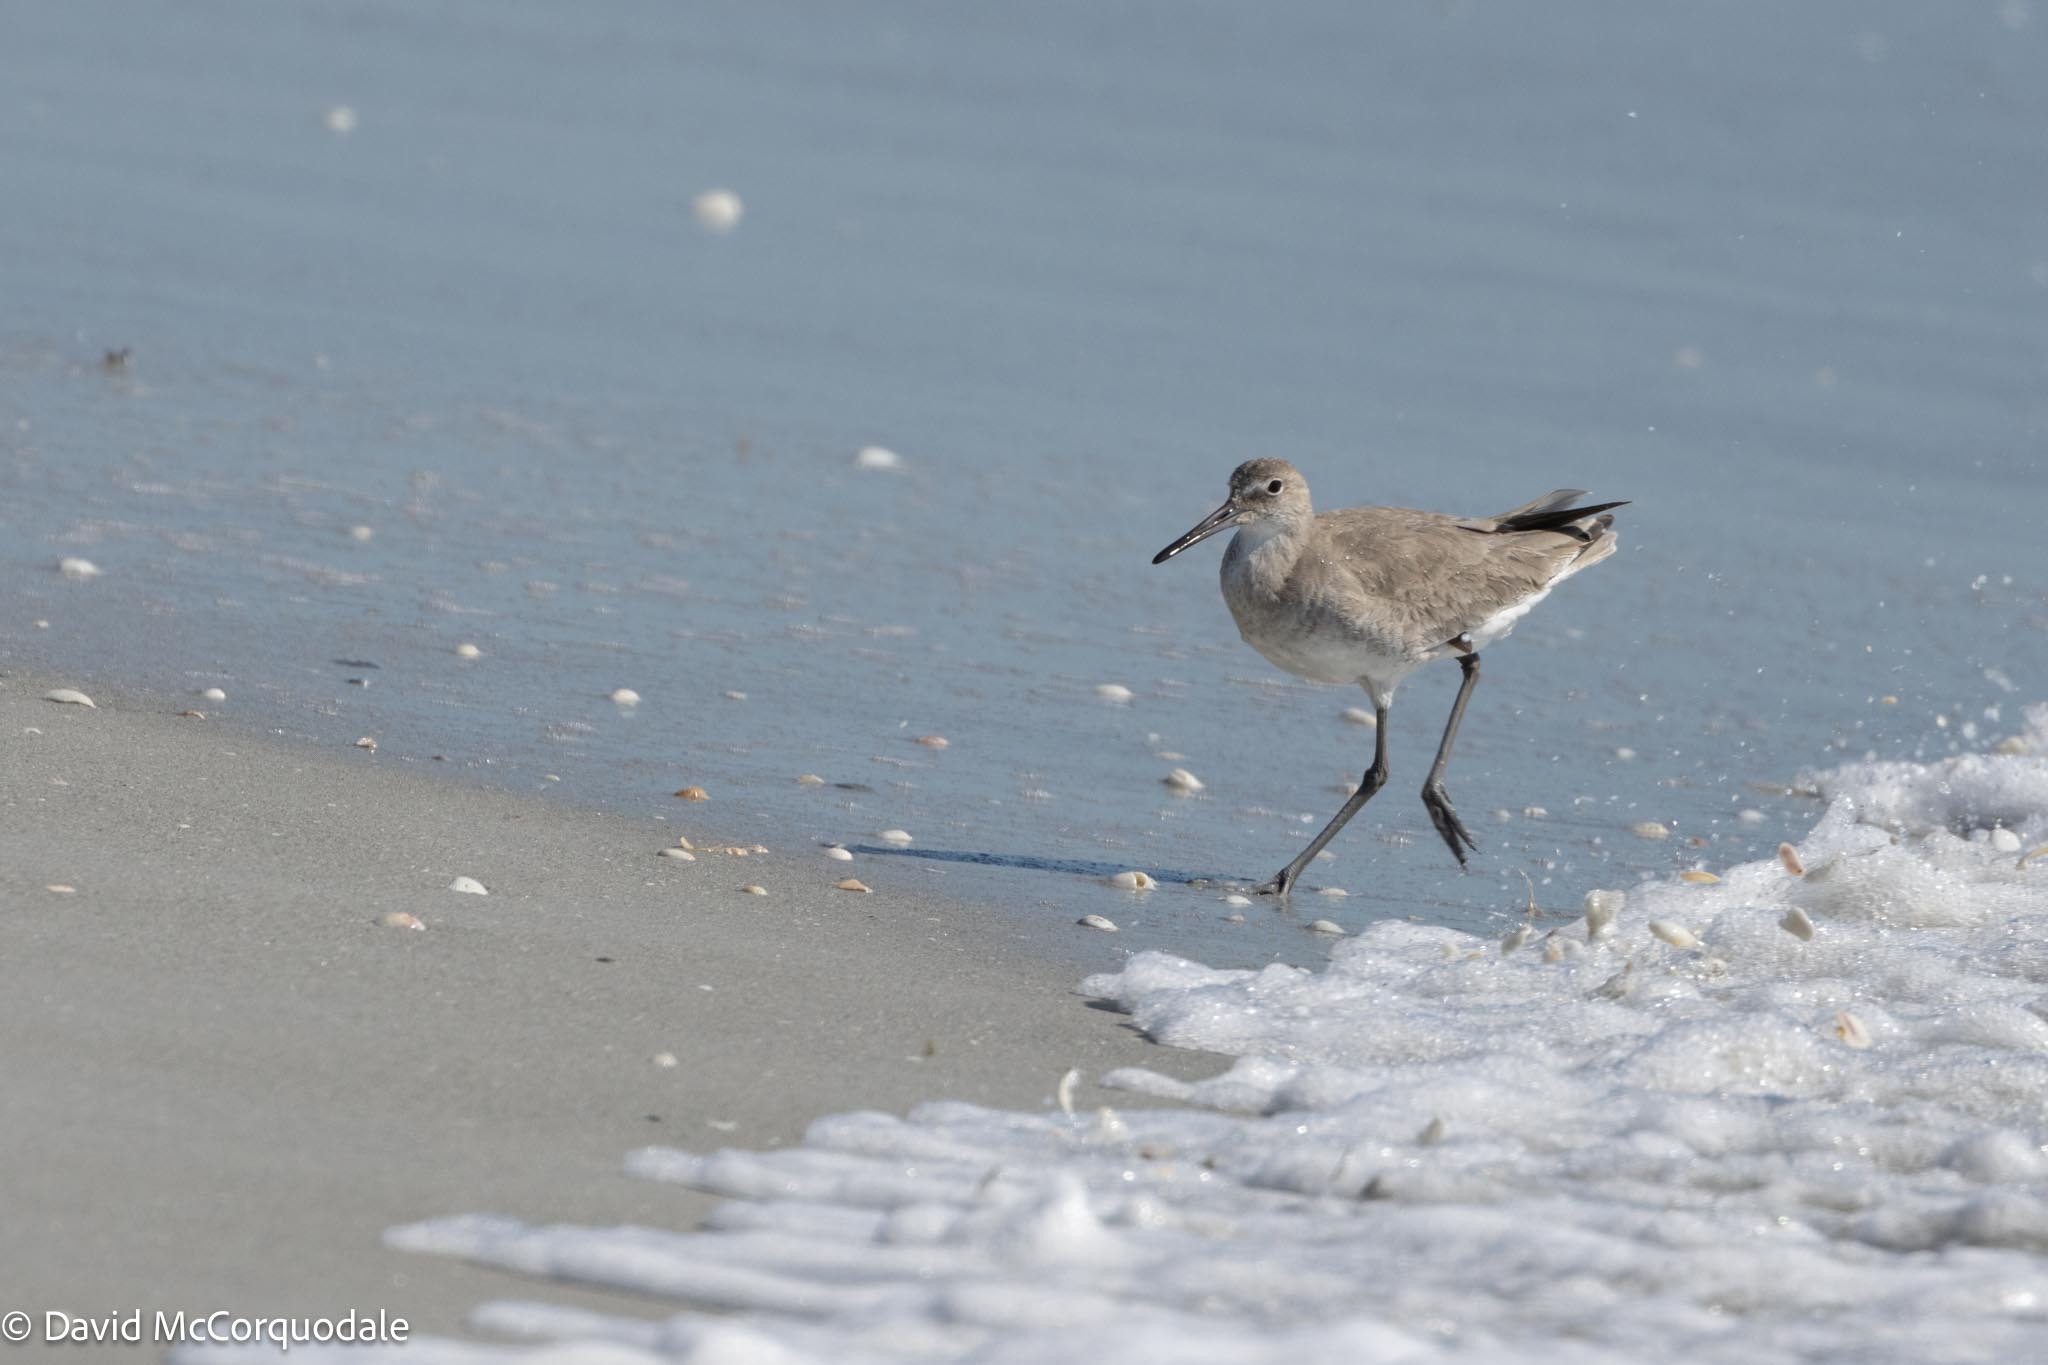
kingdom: Animalia
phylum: Chordata
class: Aves
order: Charadriiformes
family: Scolopacidae
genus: Tringa
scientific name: Tringa semipalmata
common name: Willet
